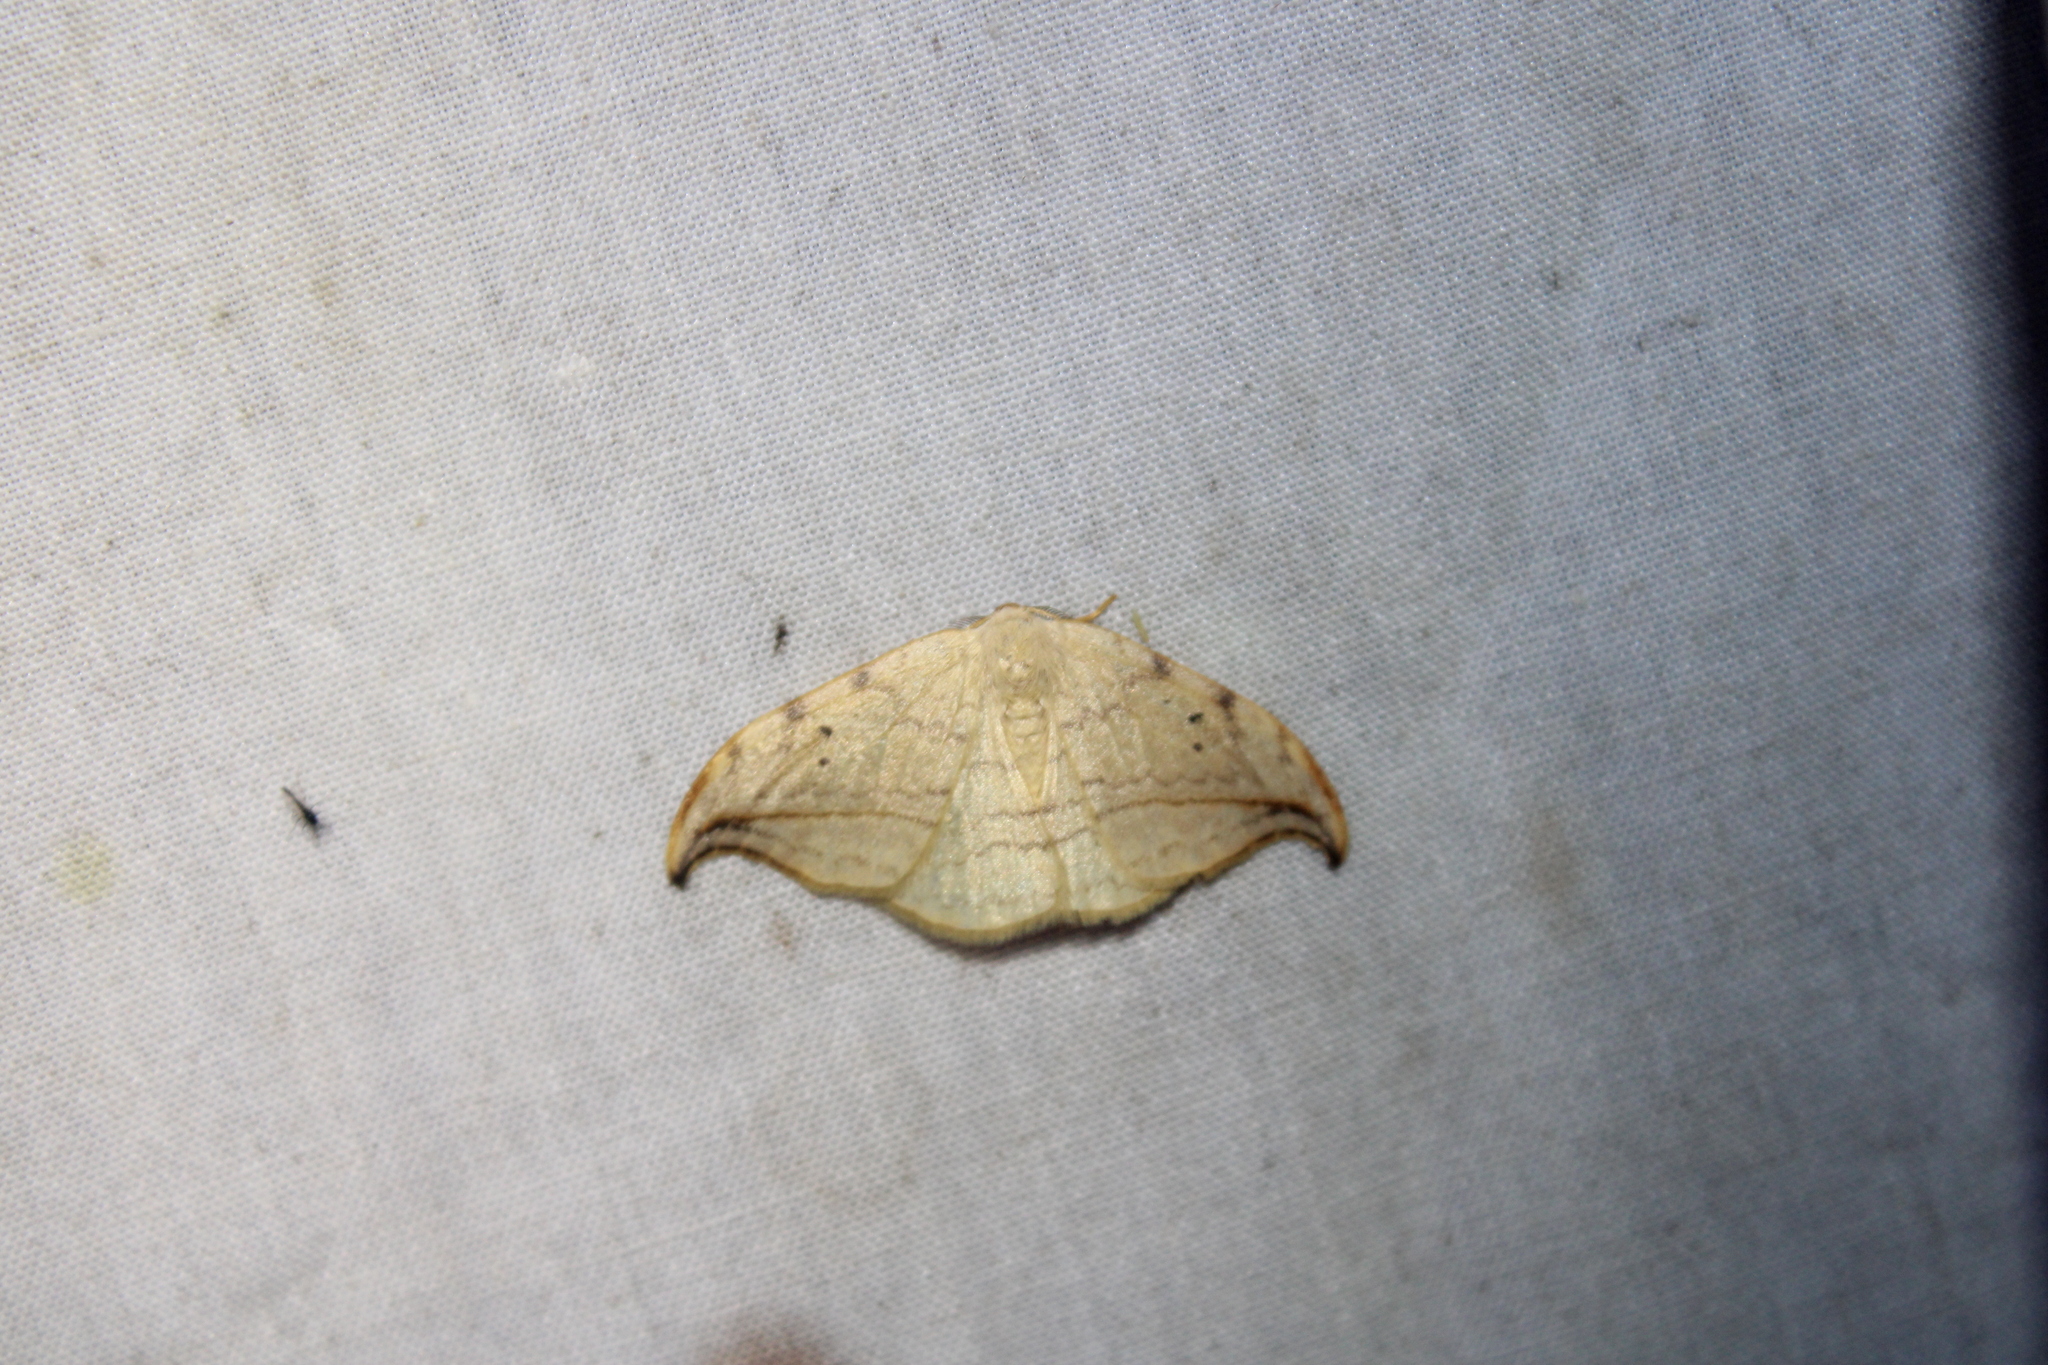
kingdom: Animalia
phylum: Arthropoda
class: Insecta
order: Lepidoptera
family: Drepanidae
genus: Drepana
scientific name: Drepana arcuata
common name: Arched hooktip moth
